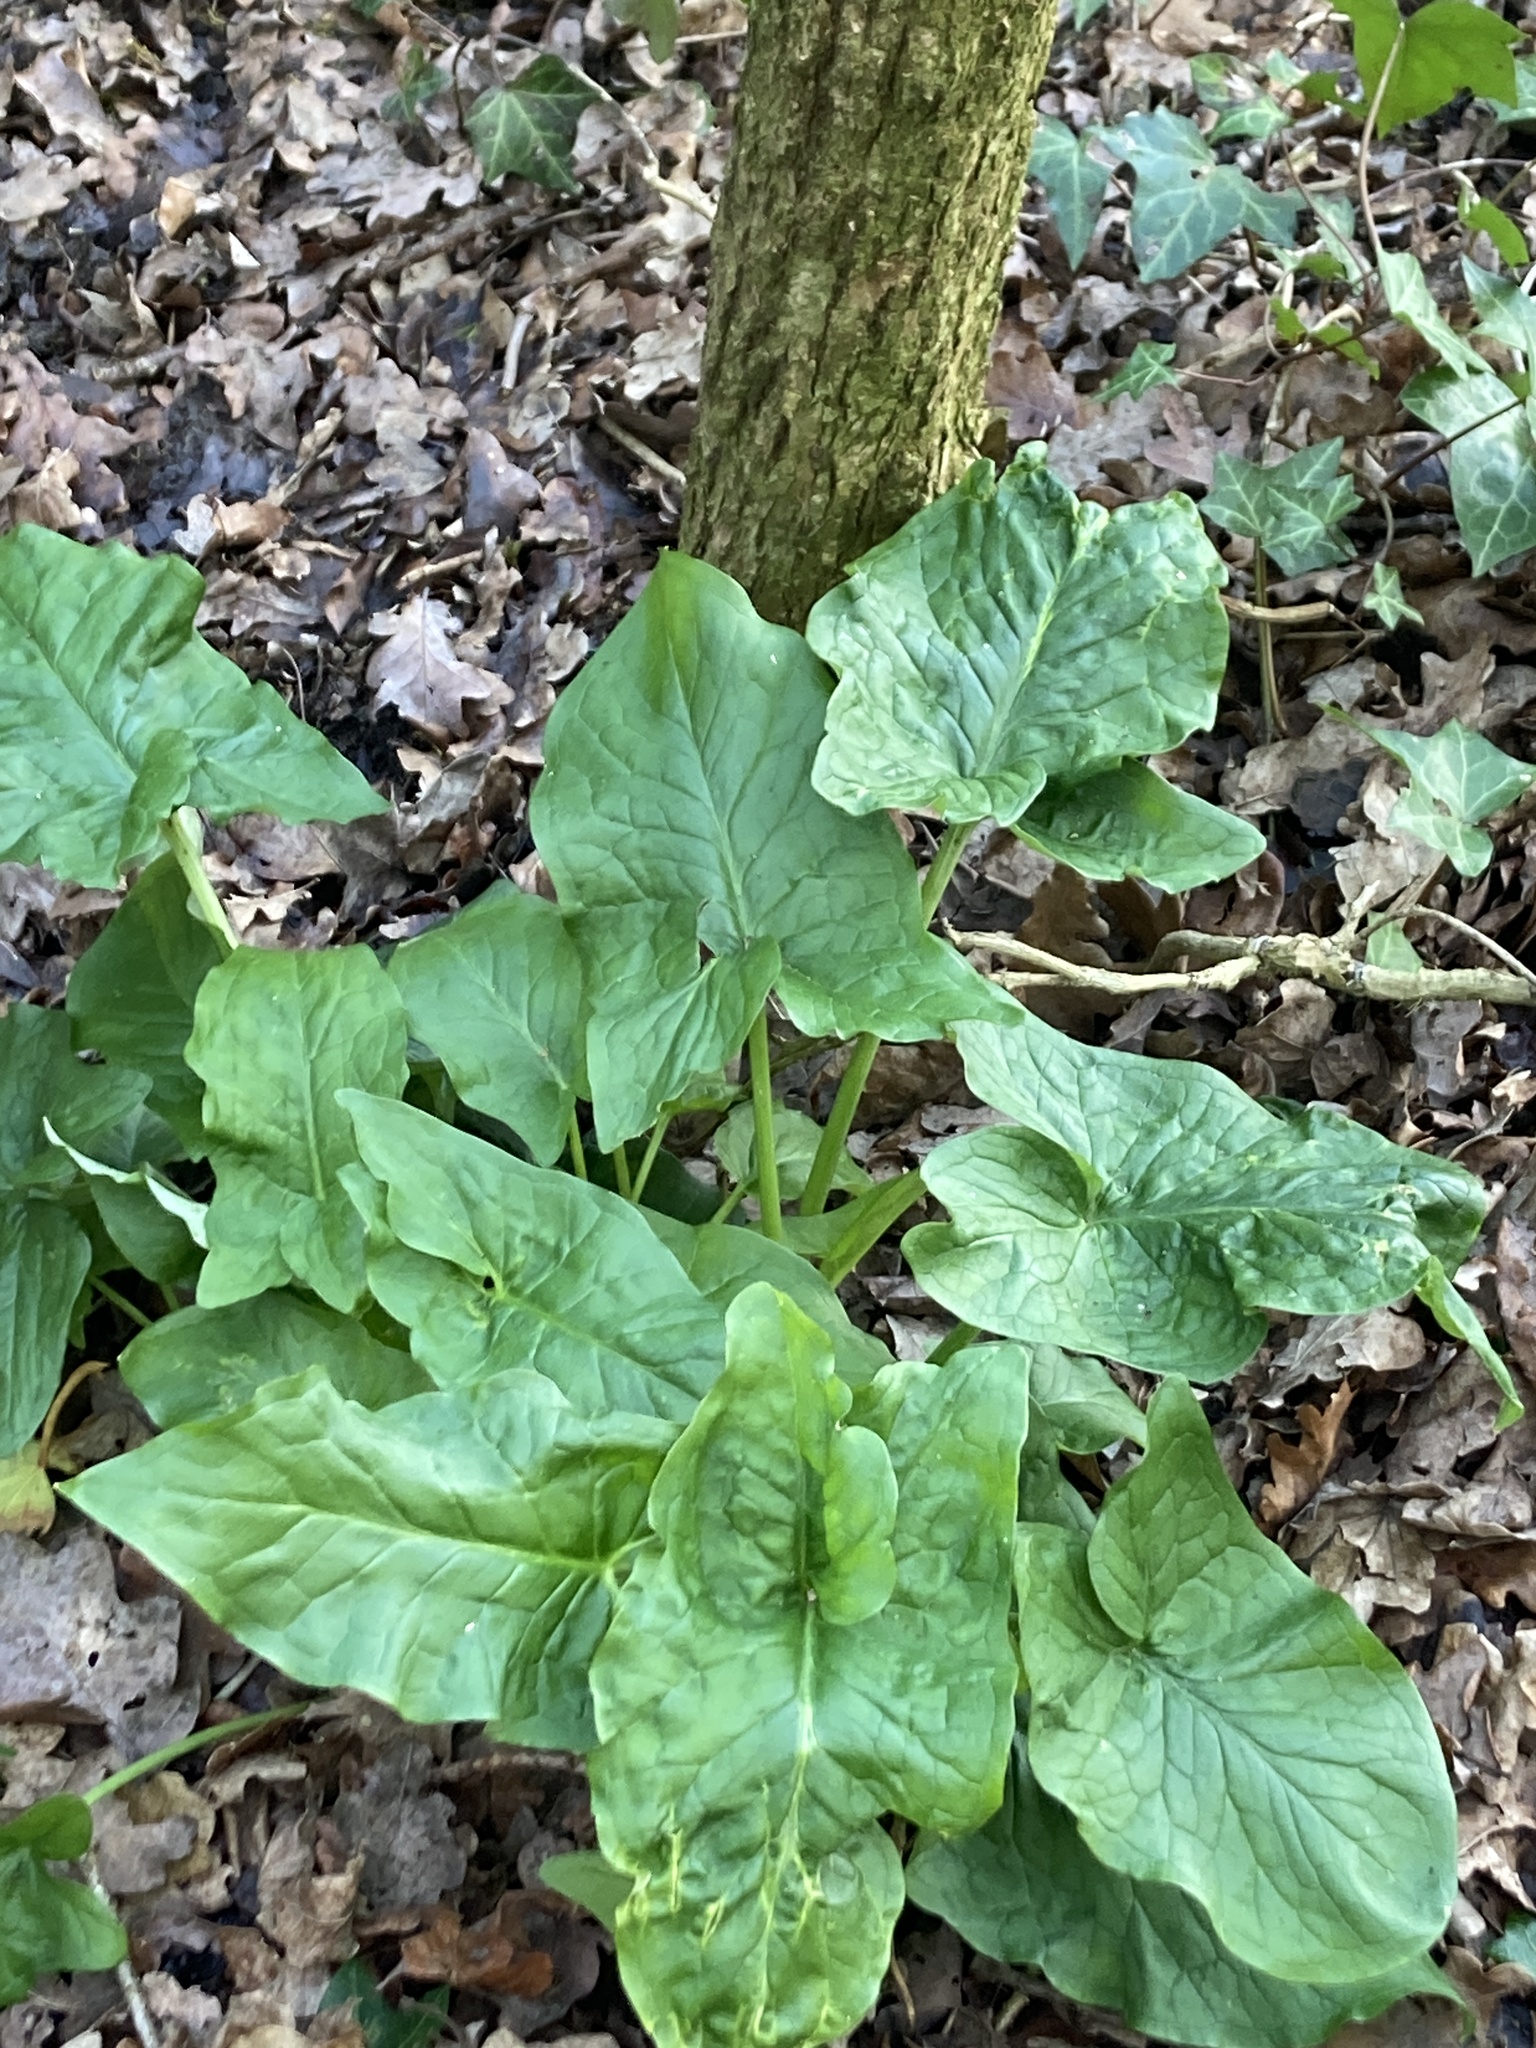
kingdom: Plantae
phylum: Tracheophyta
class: Liliopsida
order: Alismatales
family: Araceae
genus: Arum
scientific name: Arum maculatum
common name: Lords-and-ladies
